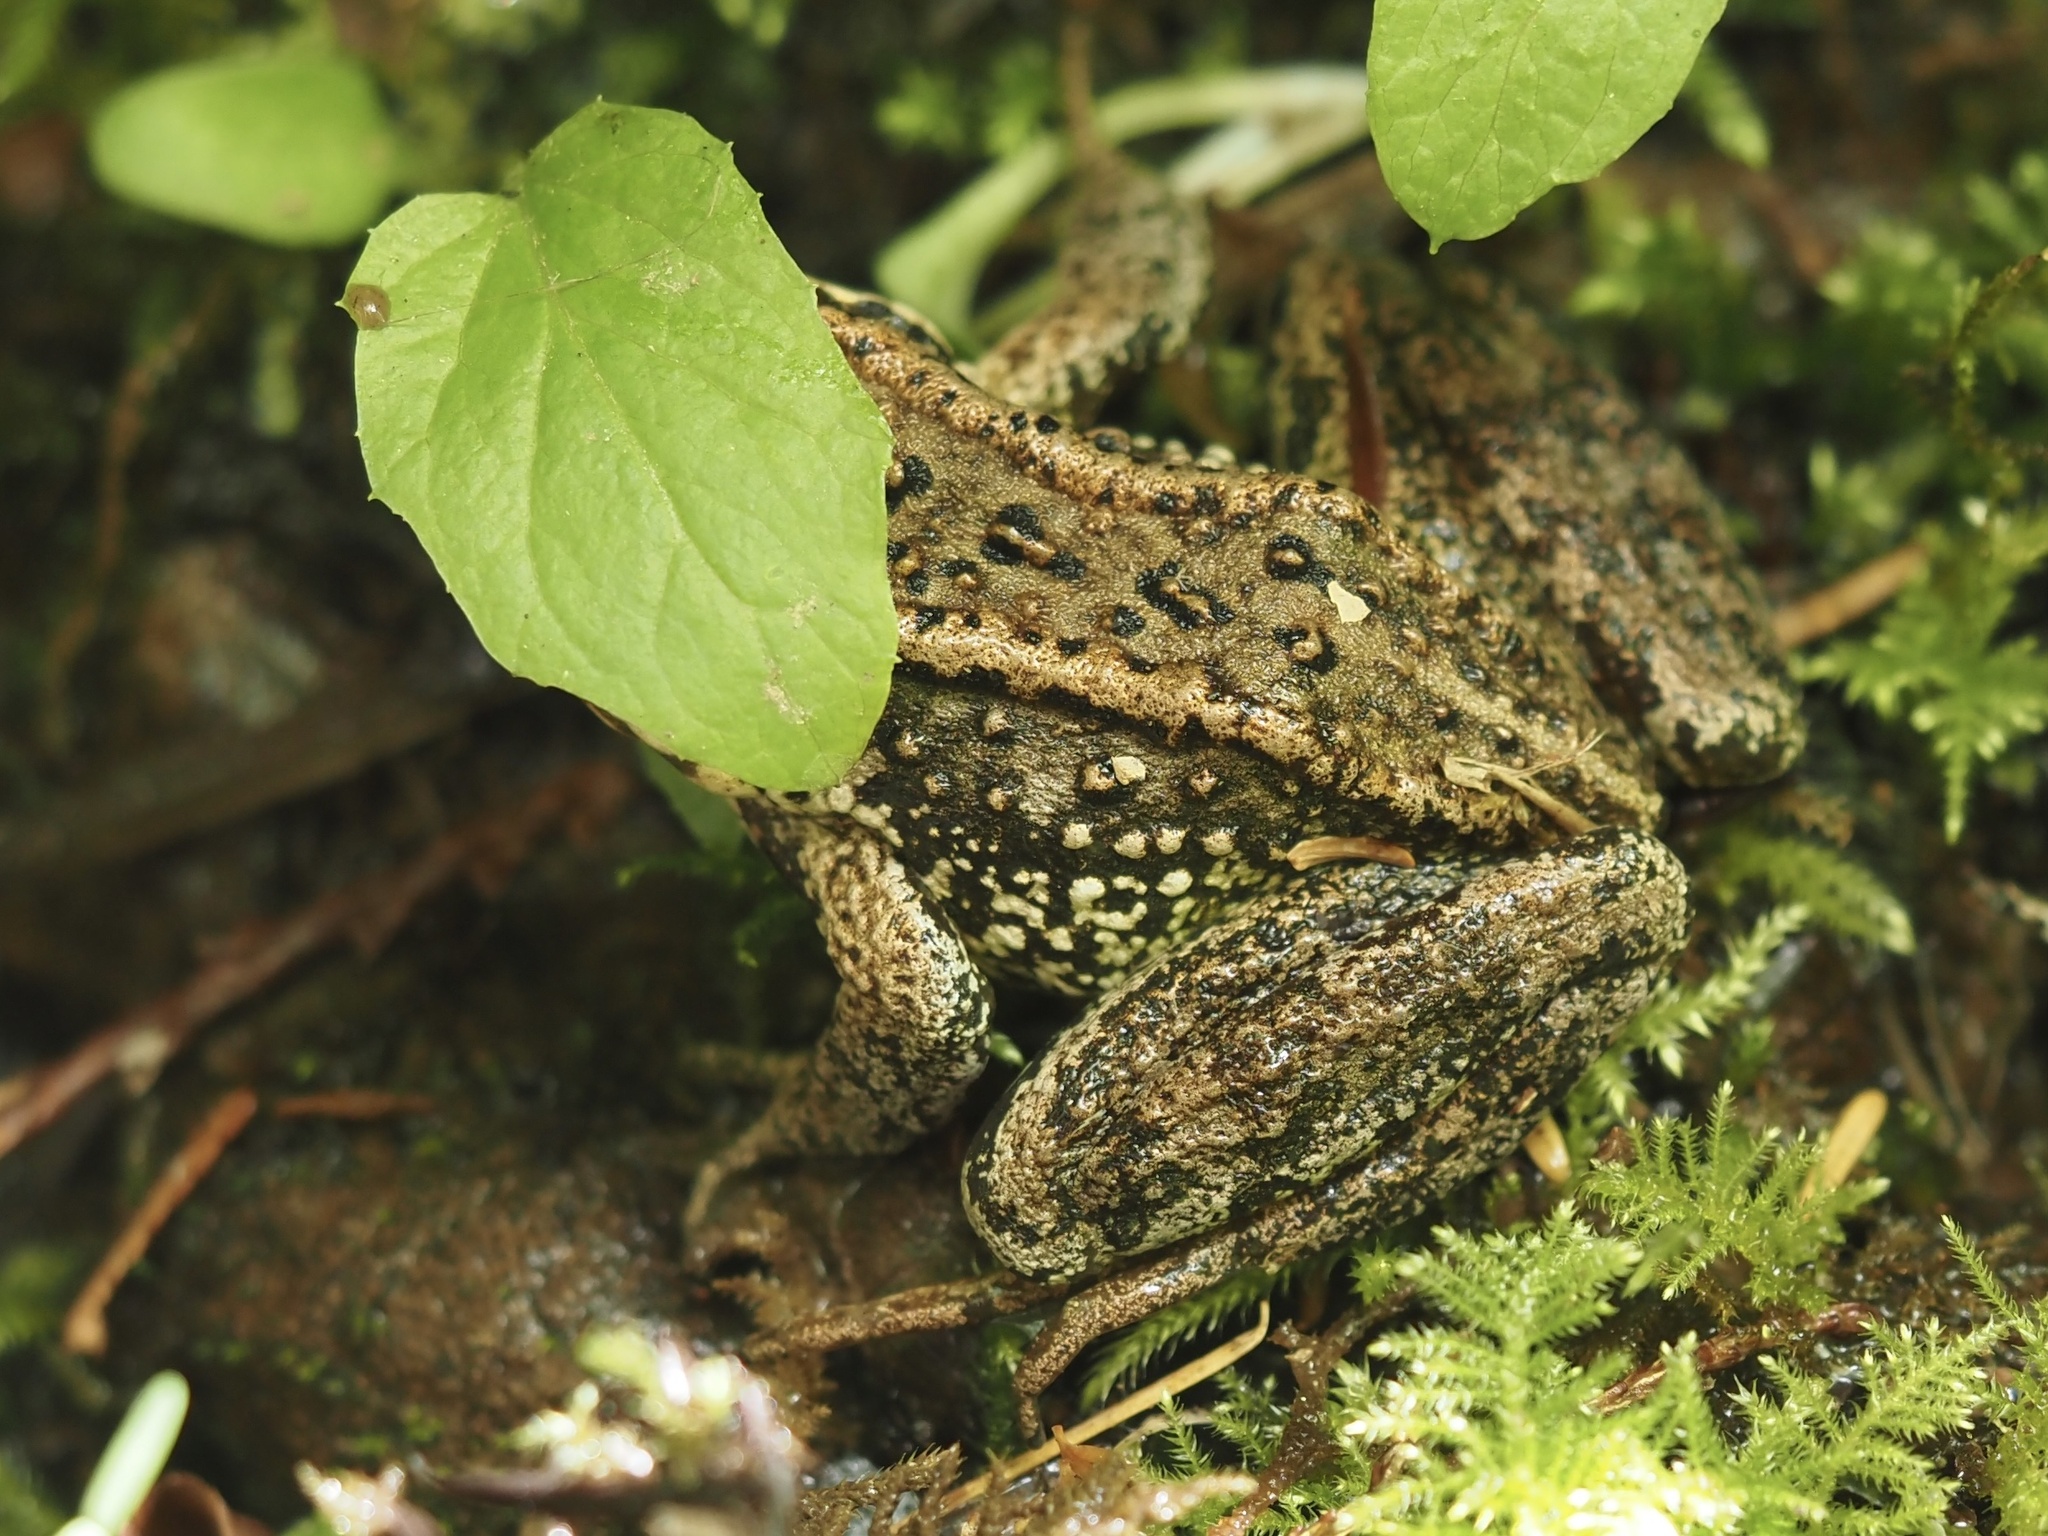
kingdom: Animalia
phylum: Chordata
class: Amphibia
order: Anura
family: Ranidae
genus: Rana
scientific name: Rana cascadae
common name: Cascades frog
